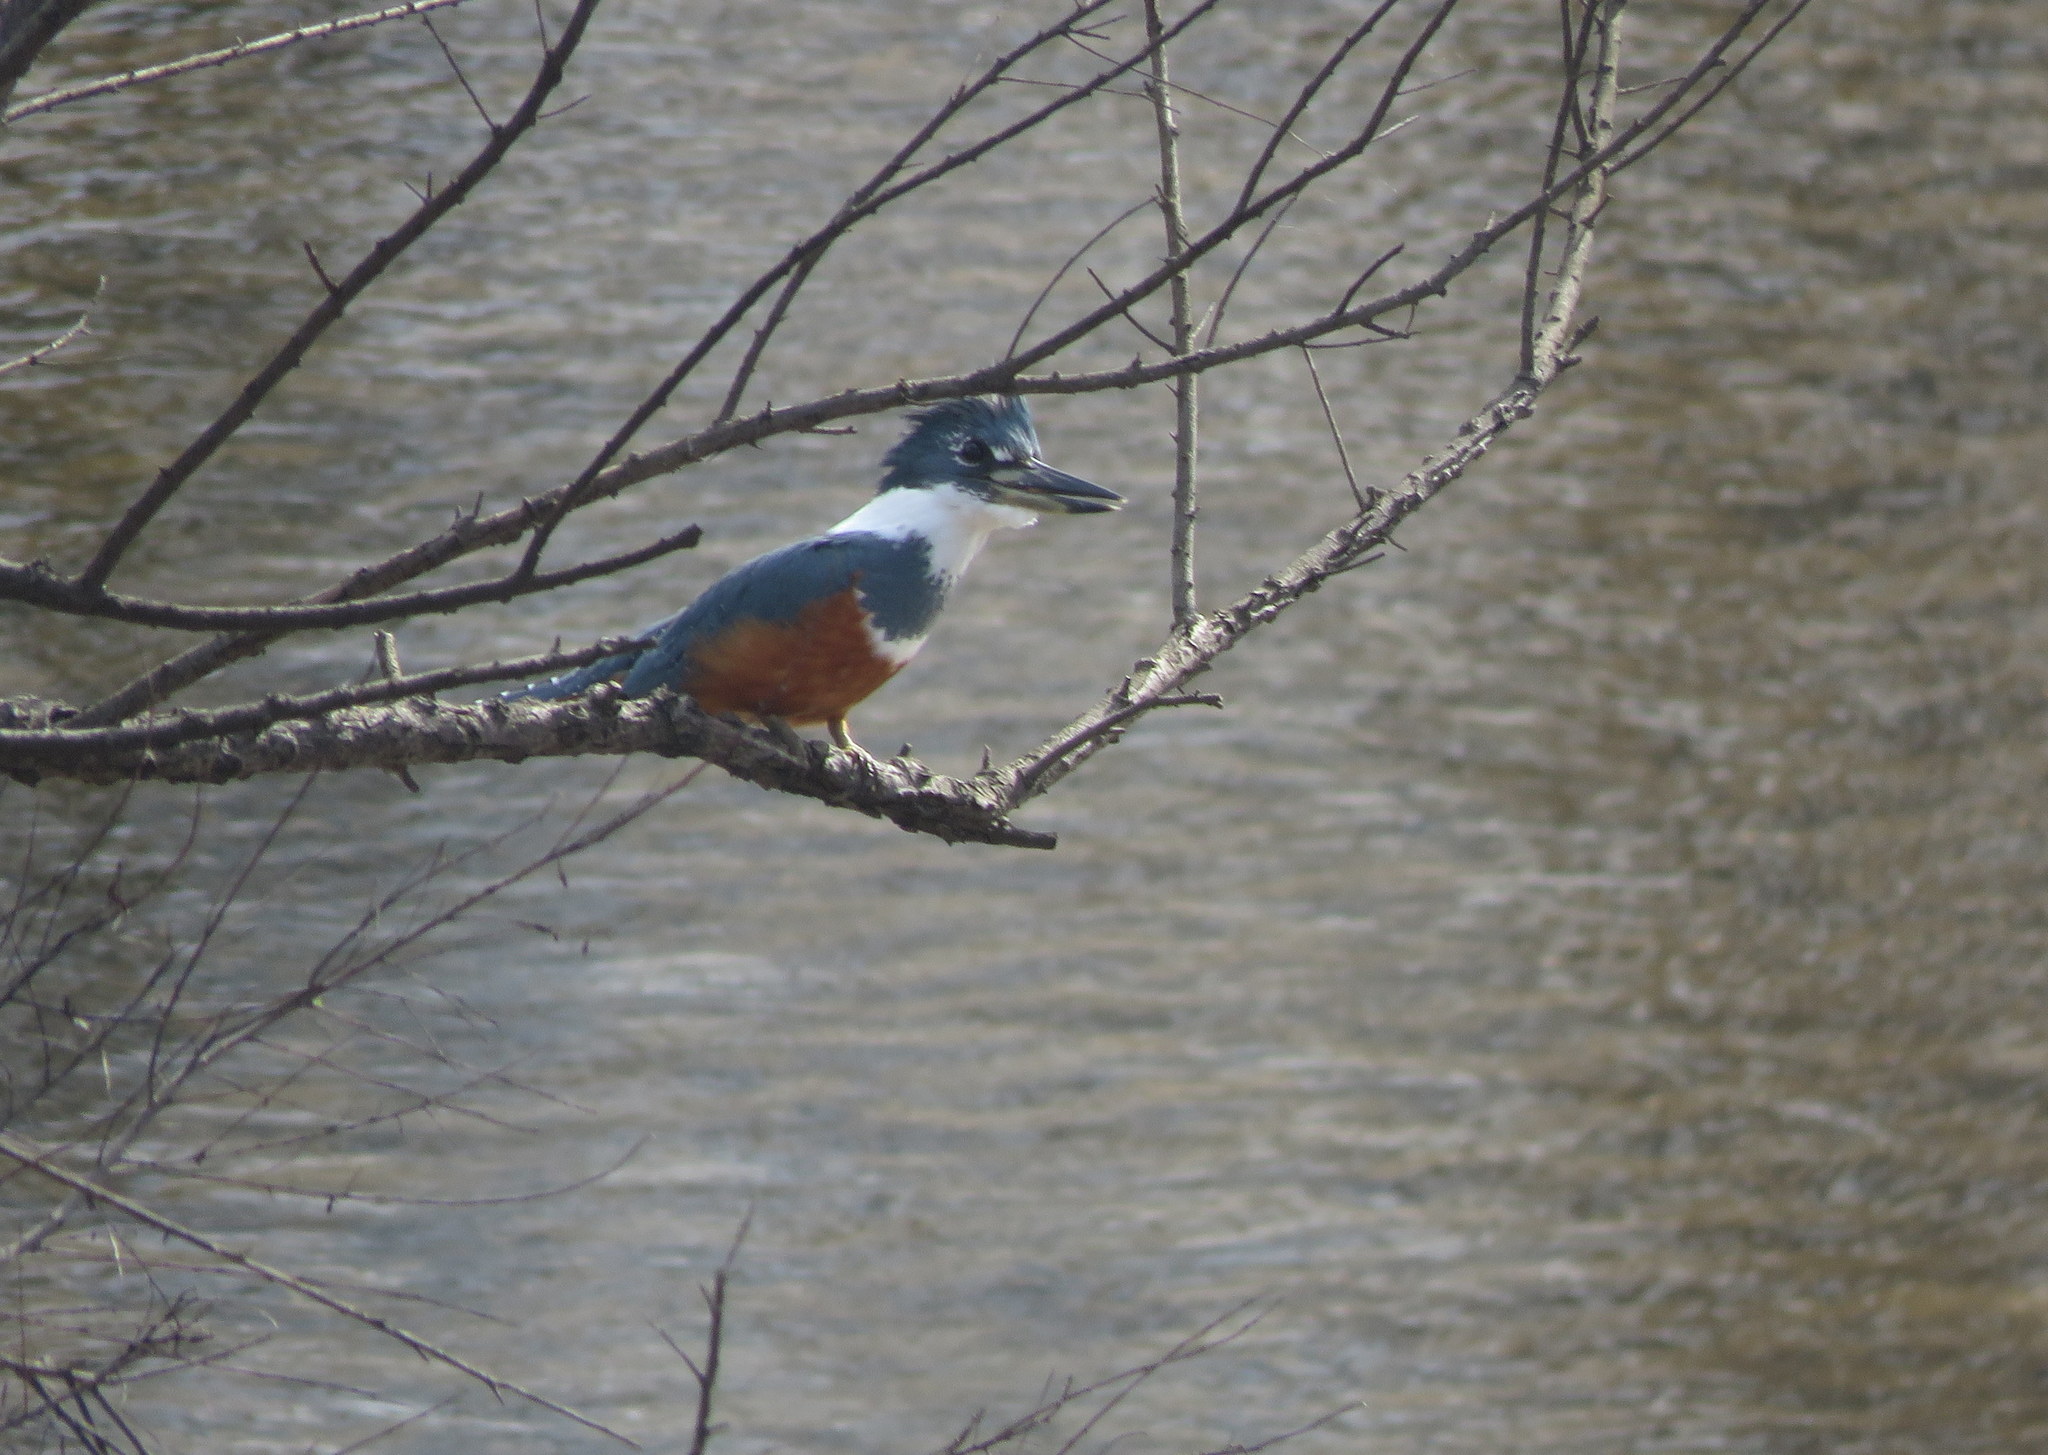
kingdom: Animalia
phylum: Chordata
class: Aves
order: Coraciiformes
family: Alcedinidae
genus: Megaceryle
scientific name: Megaceryle torquata
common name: Ringed kingfisher
